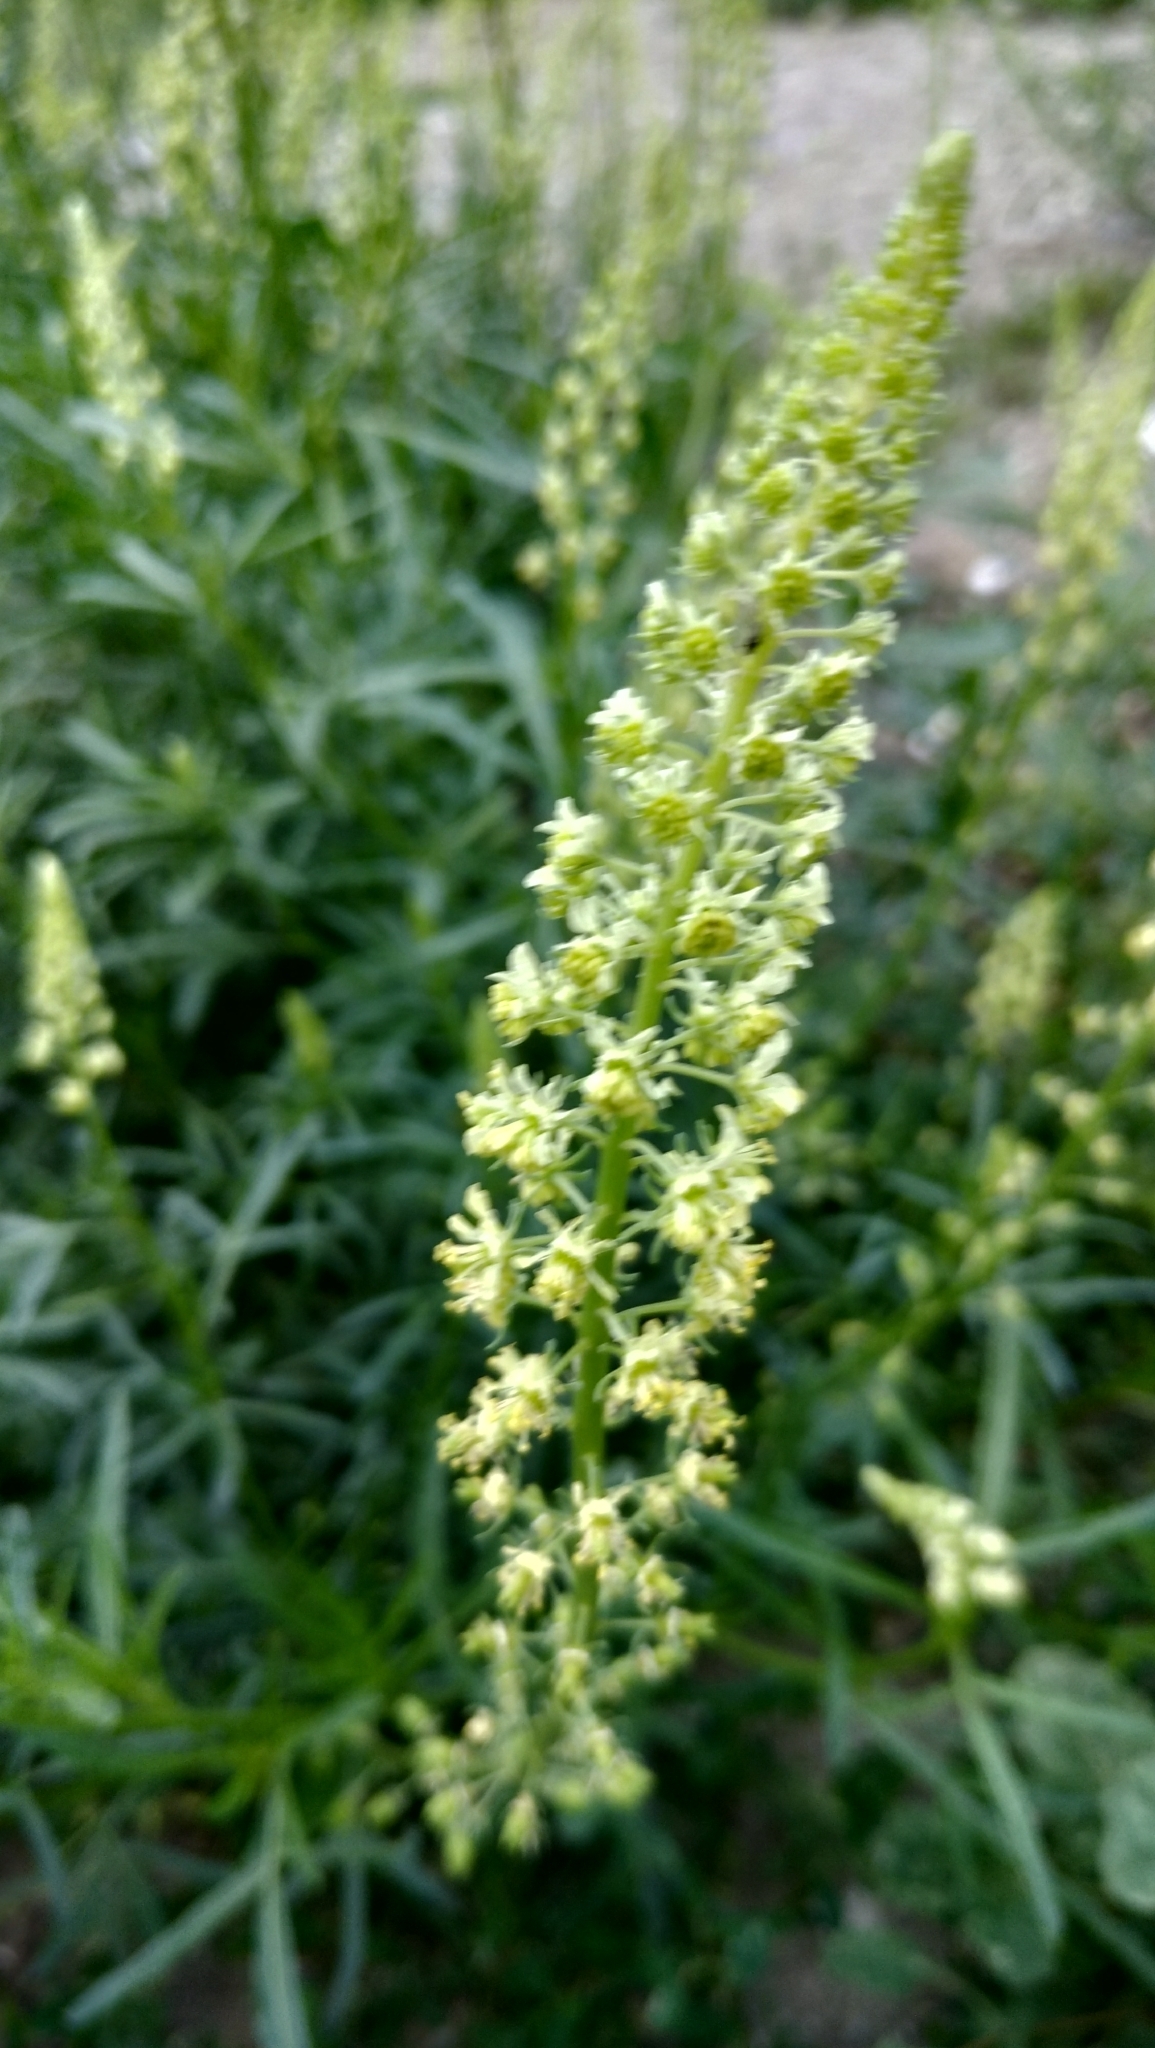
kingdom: Plantae
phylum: Tracheophyta
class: Magnoliopsida
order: Brassicales
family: Resedaceae
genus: Reseda
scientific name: Reseda lutea
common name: Wild mignonette
